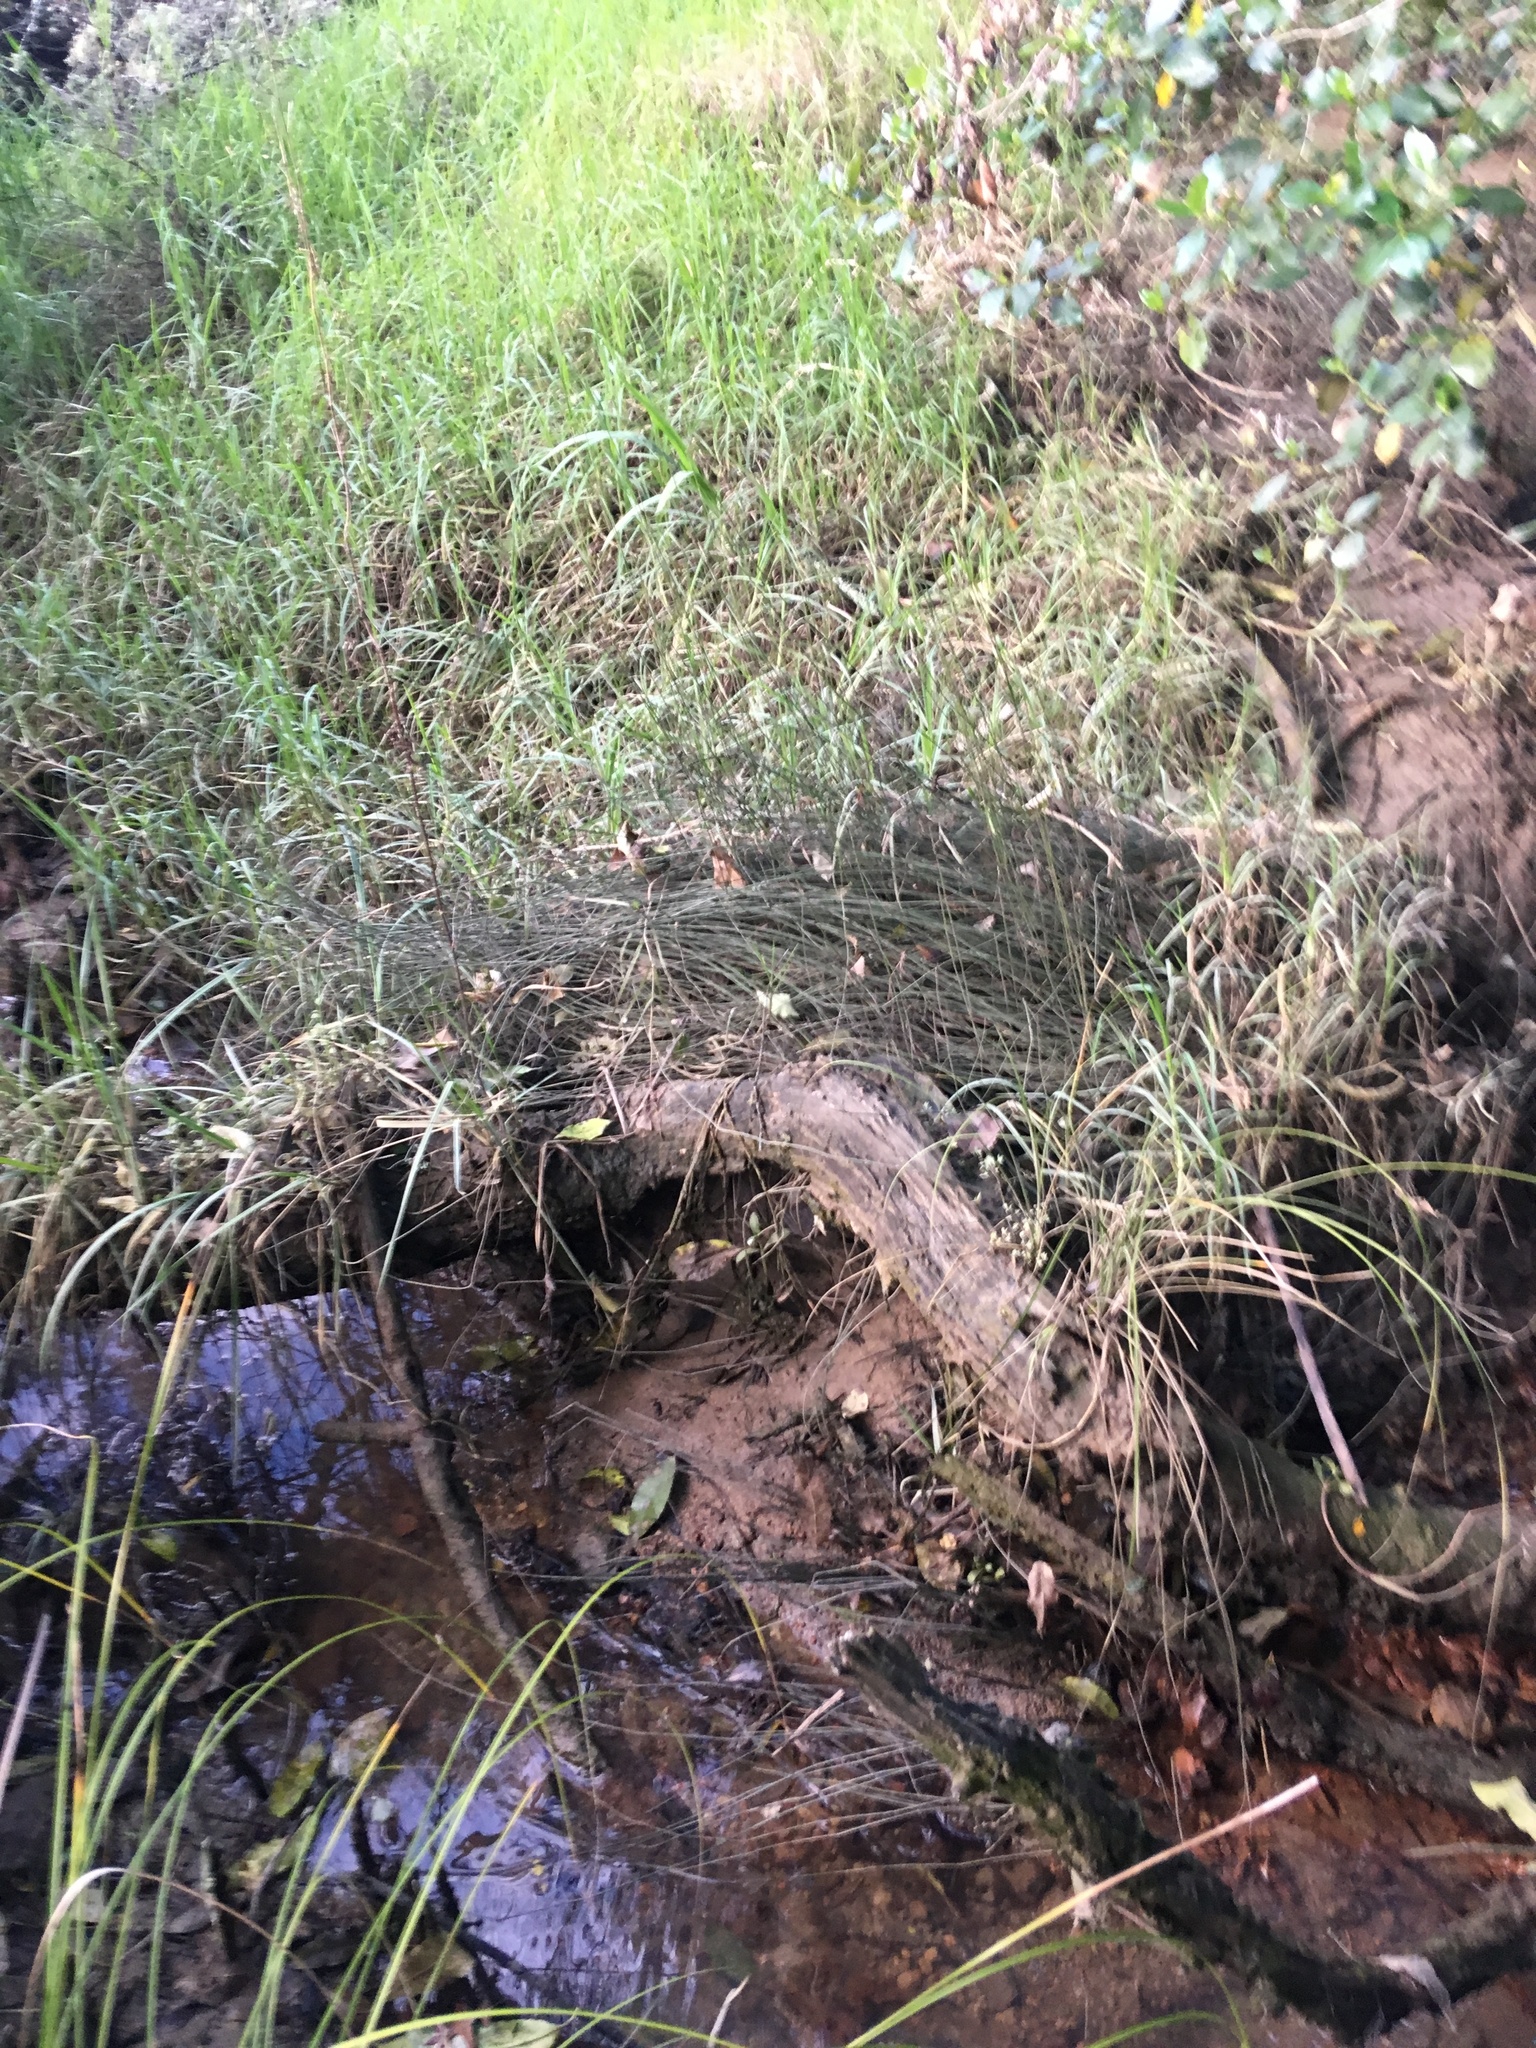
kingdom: Plantae
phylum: Tracheophyta
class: Liliopsida
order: Poales
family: Poaceae
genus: Cenchrus
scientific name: Cenchrus clandestinus
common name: Kikuyugrass
